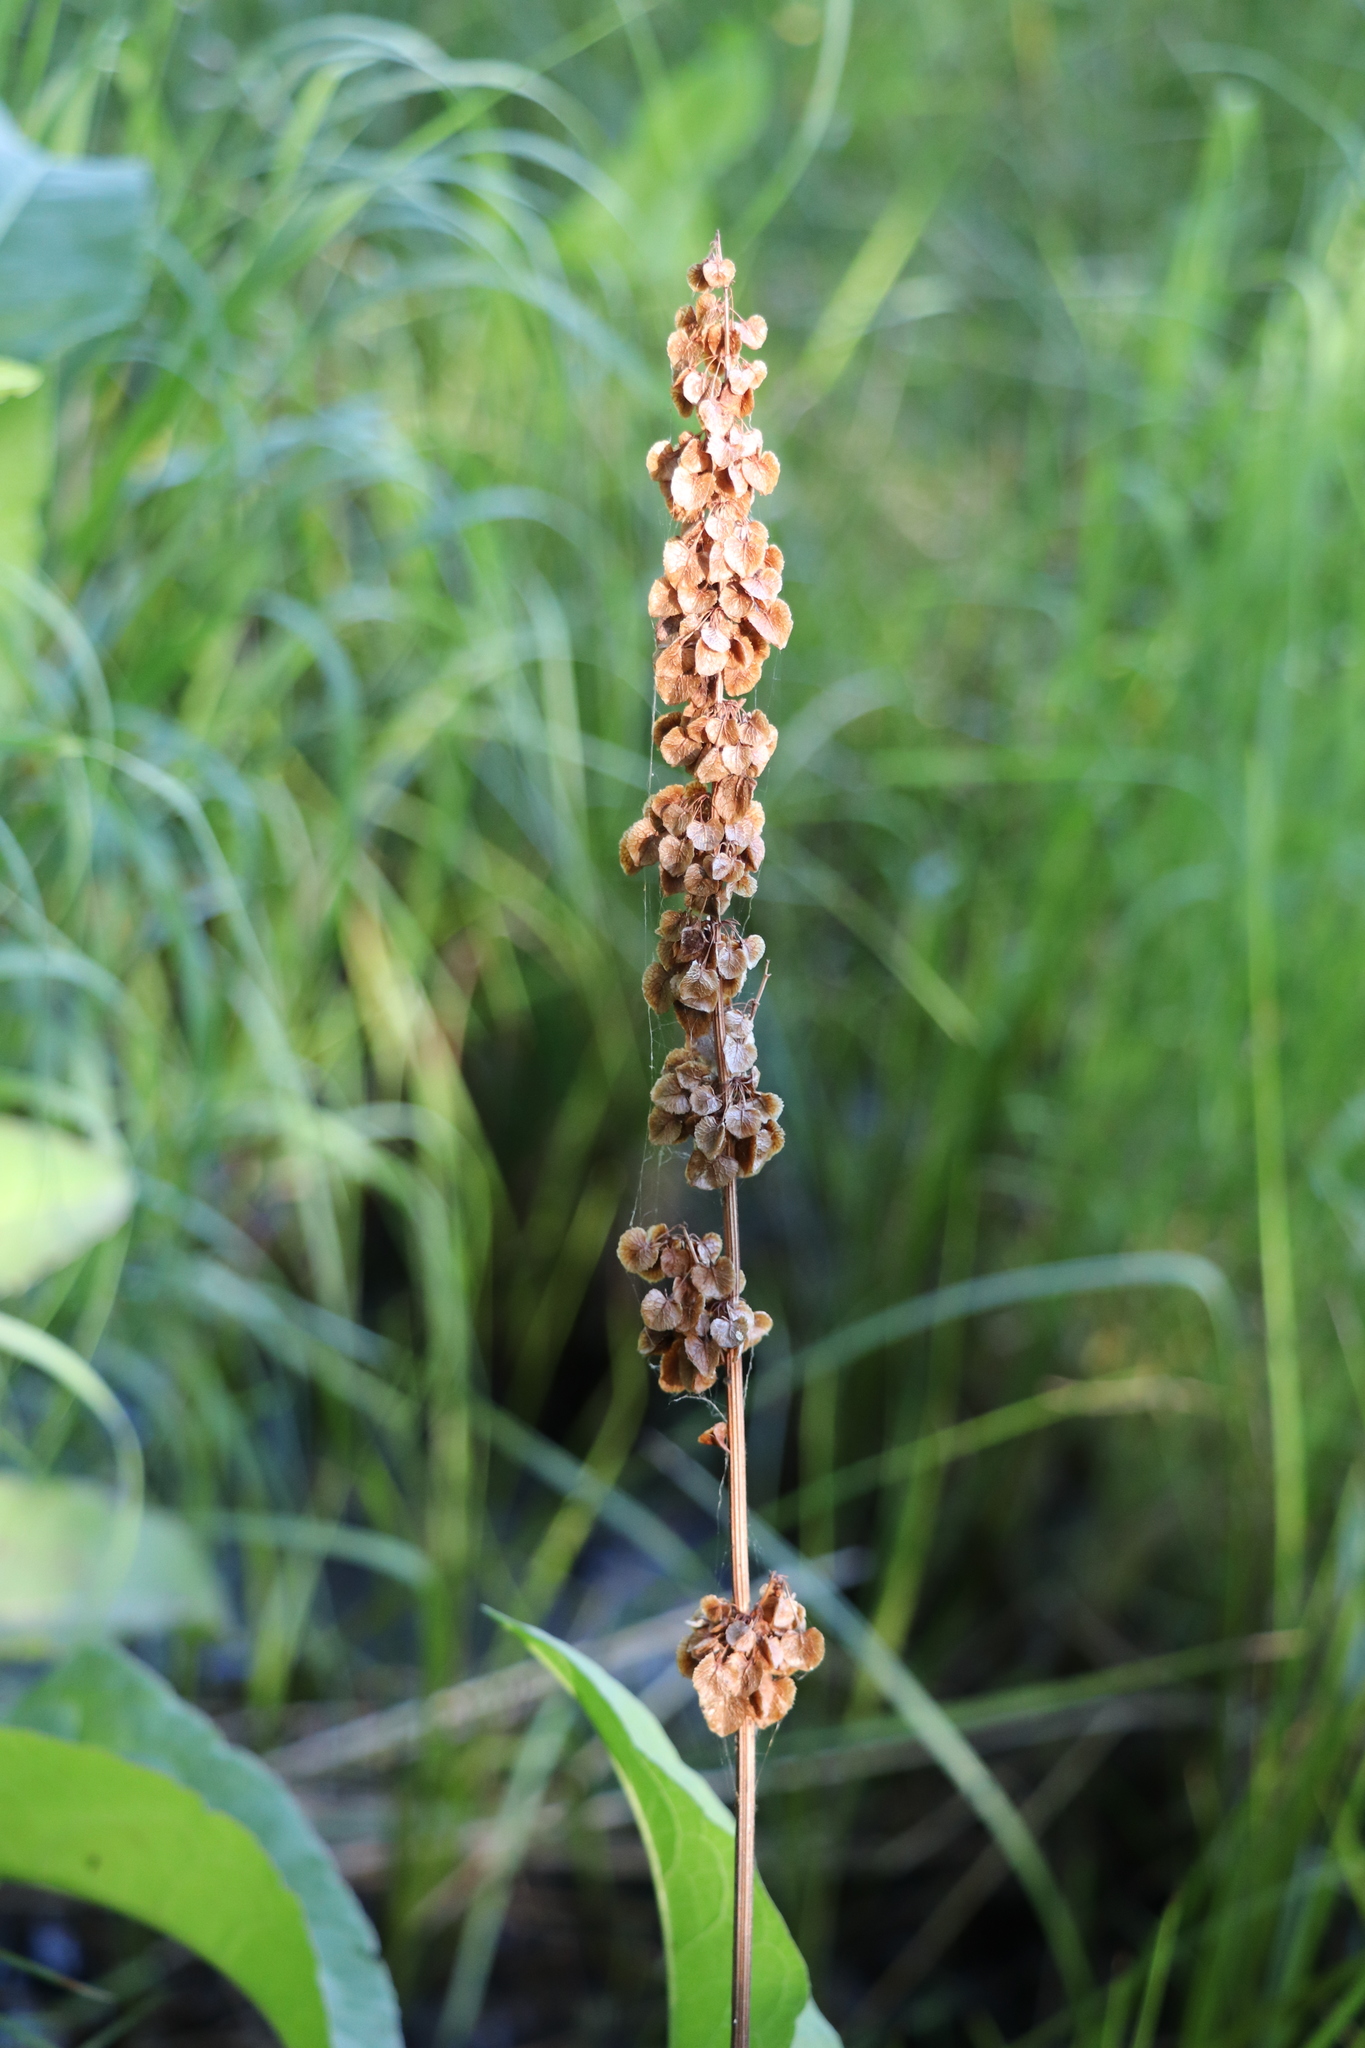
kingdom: Plantae
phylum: Tracheophyta
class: Magnoliopsida
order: Caryophyllales
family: Polygonaceae
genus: Rumex
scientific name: Rumex aquaticus
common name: Scottish dock
